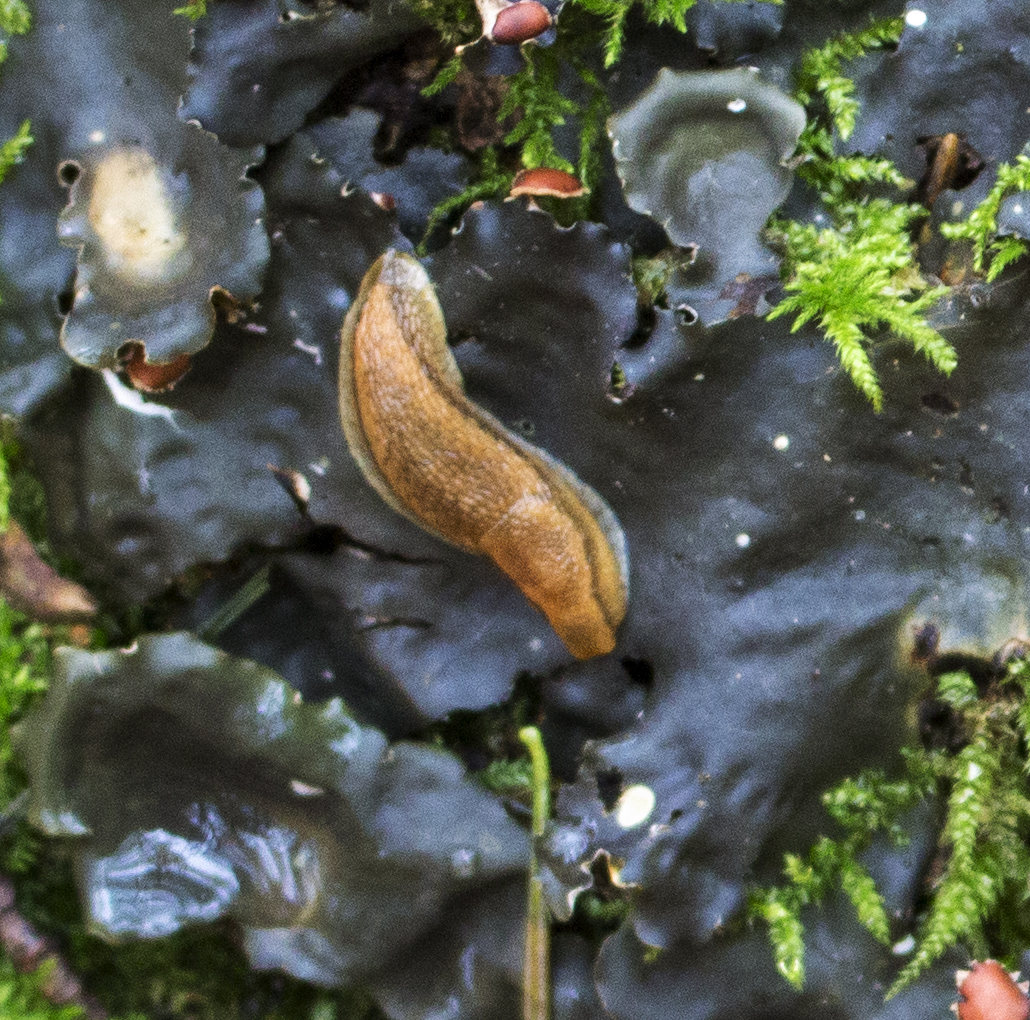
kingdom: Animalia
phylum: Mollusca
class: Gastropoda
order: Stylommatophora
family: Arionidae
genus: Arion
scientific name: Arion subfuscus
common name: Dusky arion
